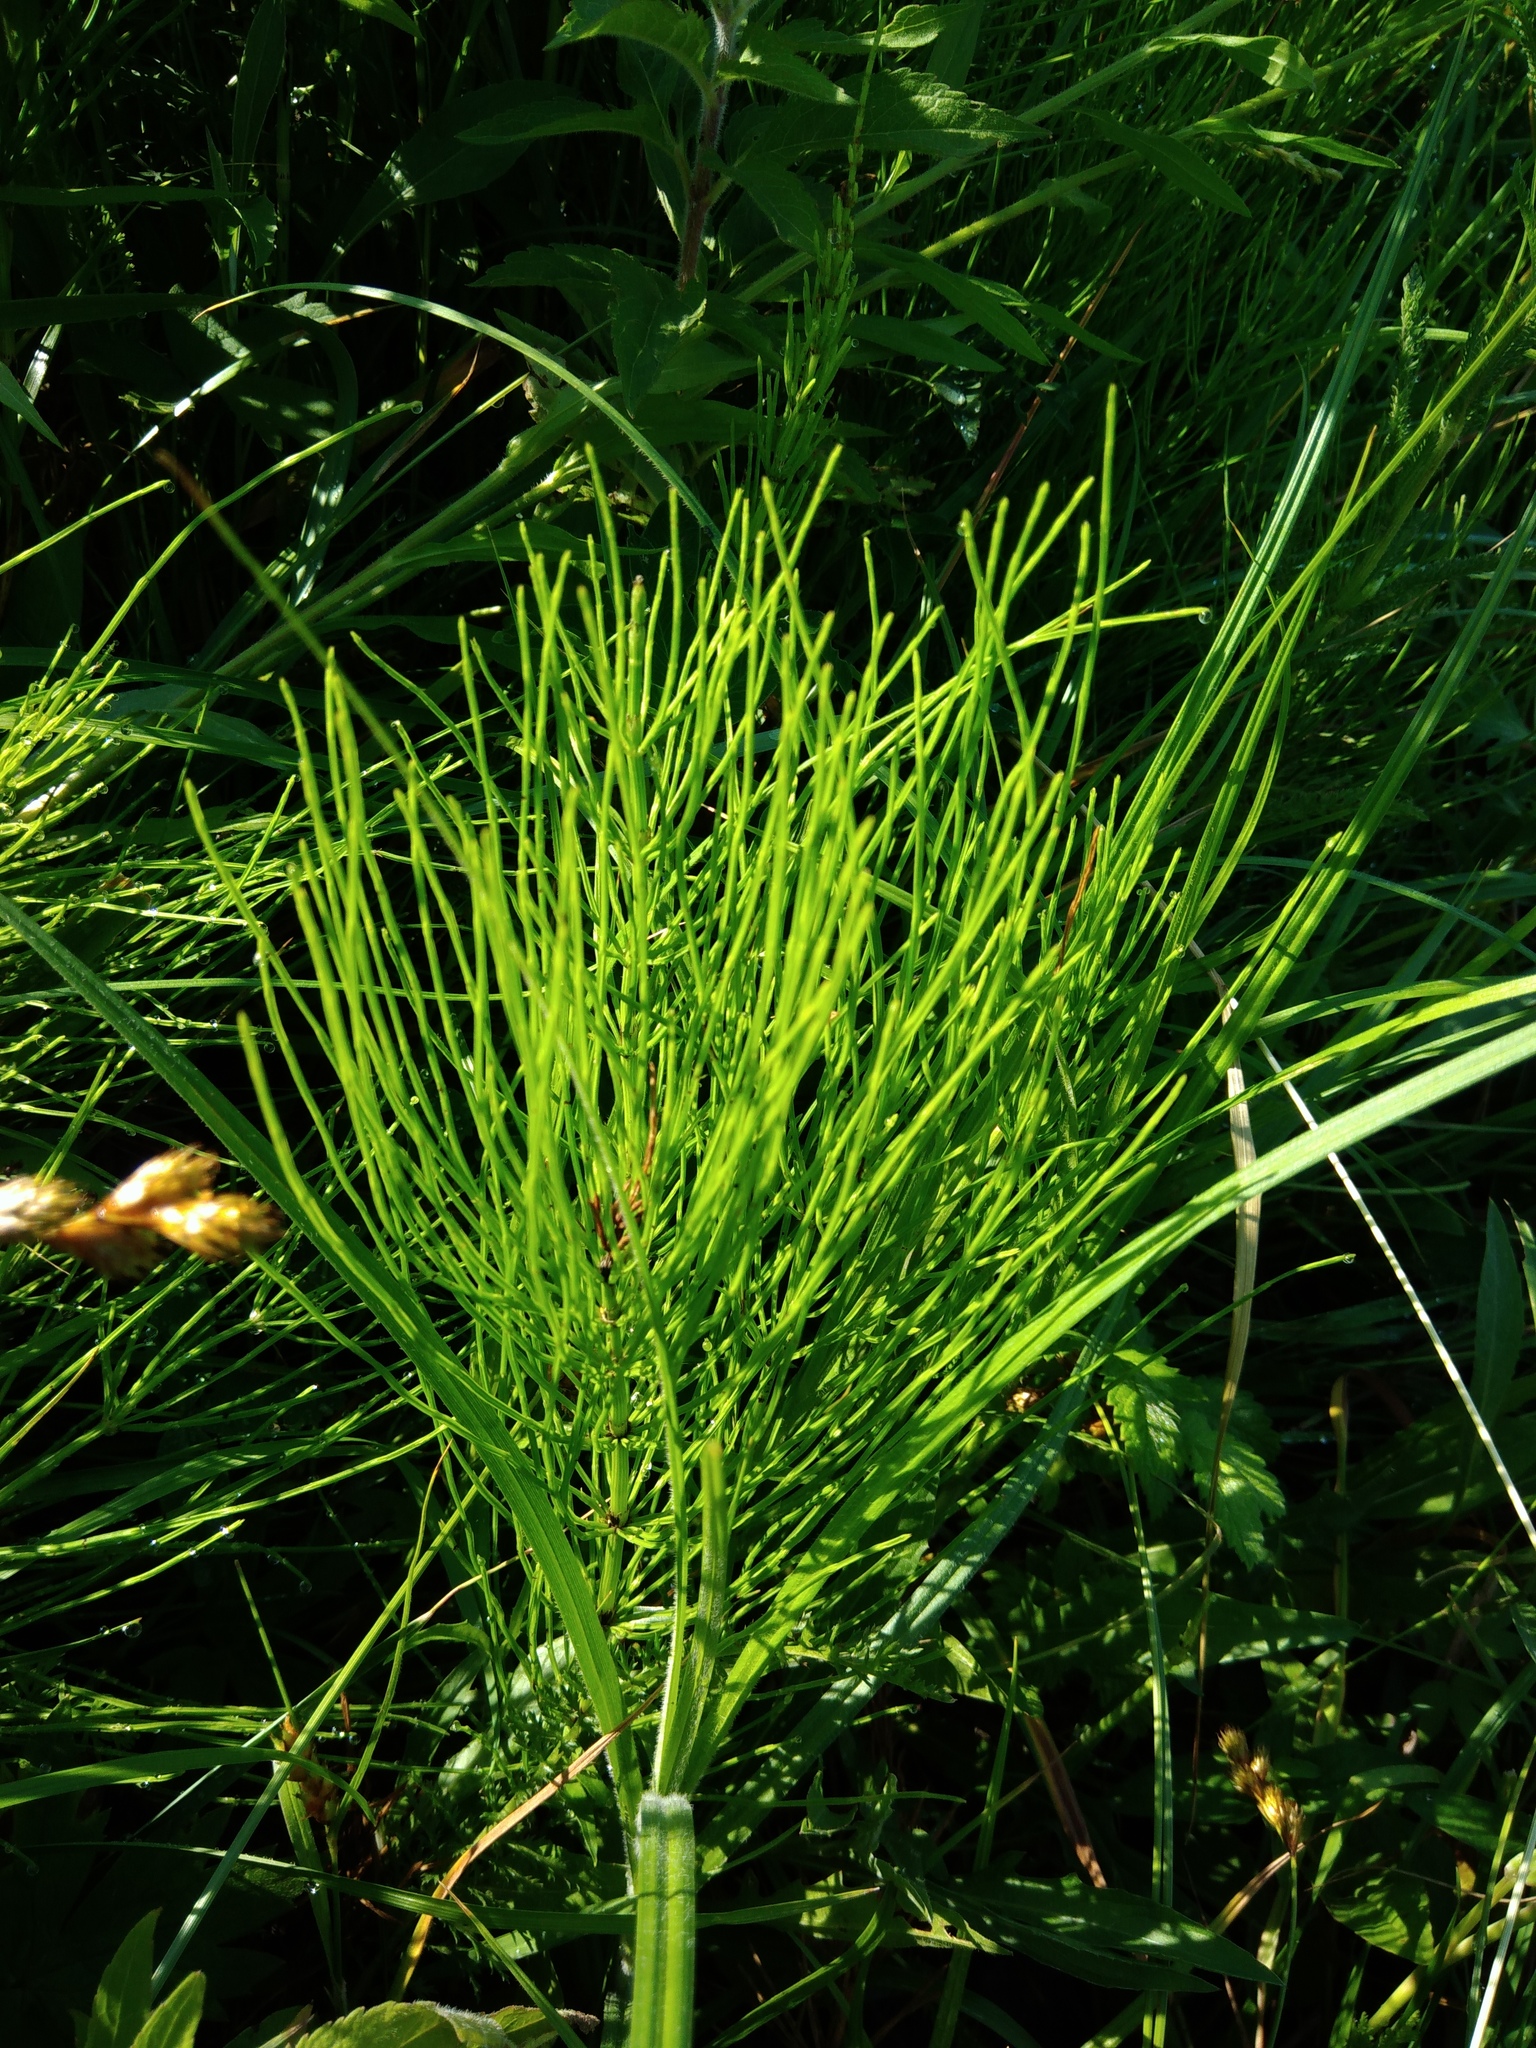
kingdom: Plantae
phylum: Tracheophyta
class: Polypodiopsida
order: Equisetales
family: Equisetaceae
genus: Equisetum
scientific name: Equisetum arvense
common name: Field horsetail
